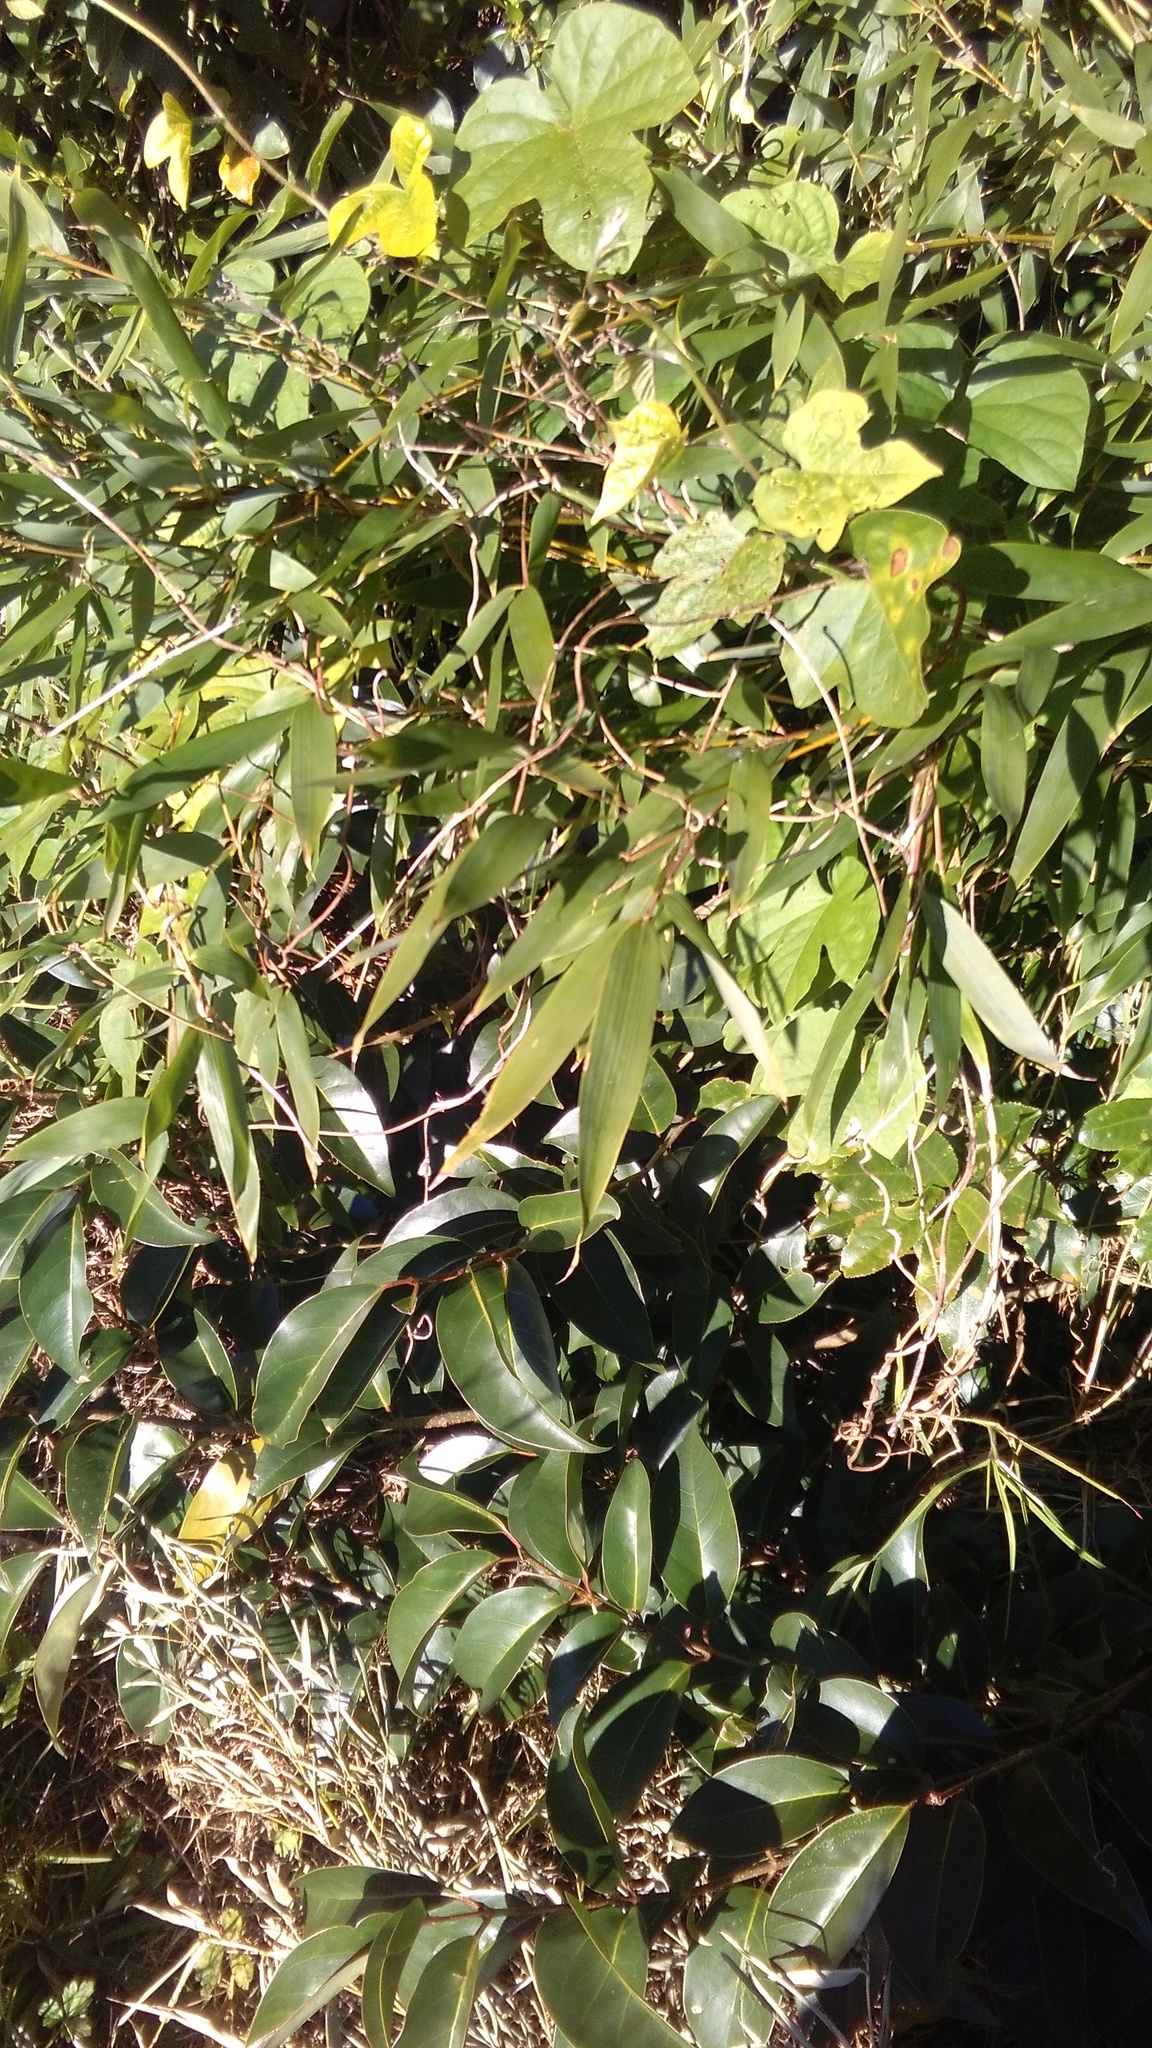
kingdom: Plantae
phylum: Tracheophyta
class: Magnoliopsida
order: Solanales
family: Convolvulaceae
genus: Ipomoea
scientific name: Ipomoea indica
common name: Blue dawnflower
